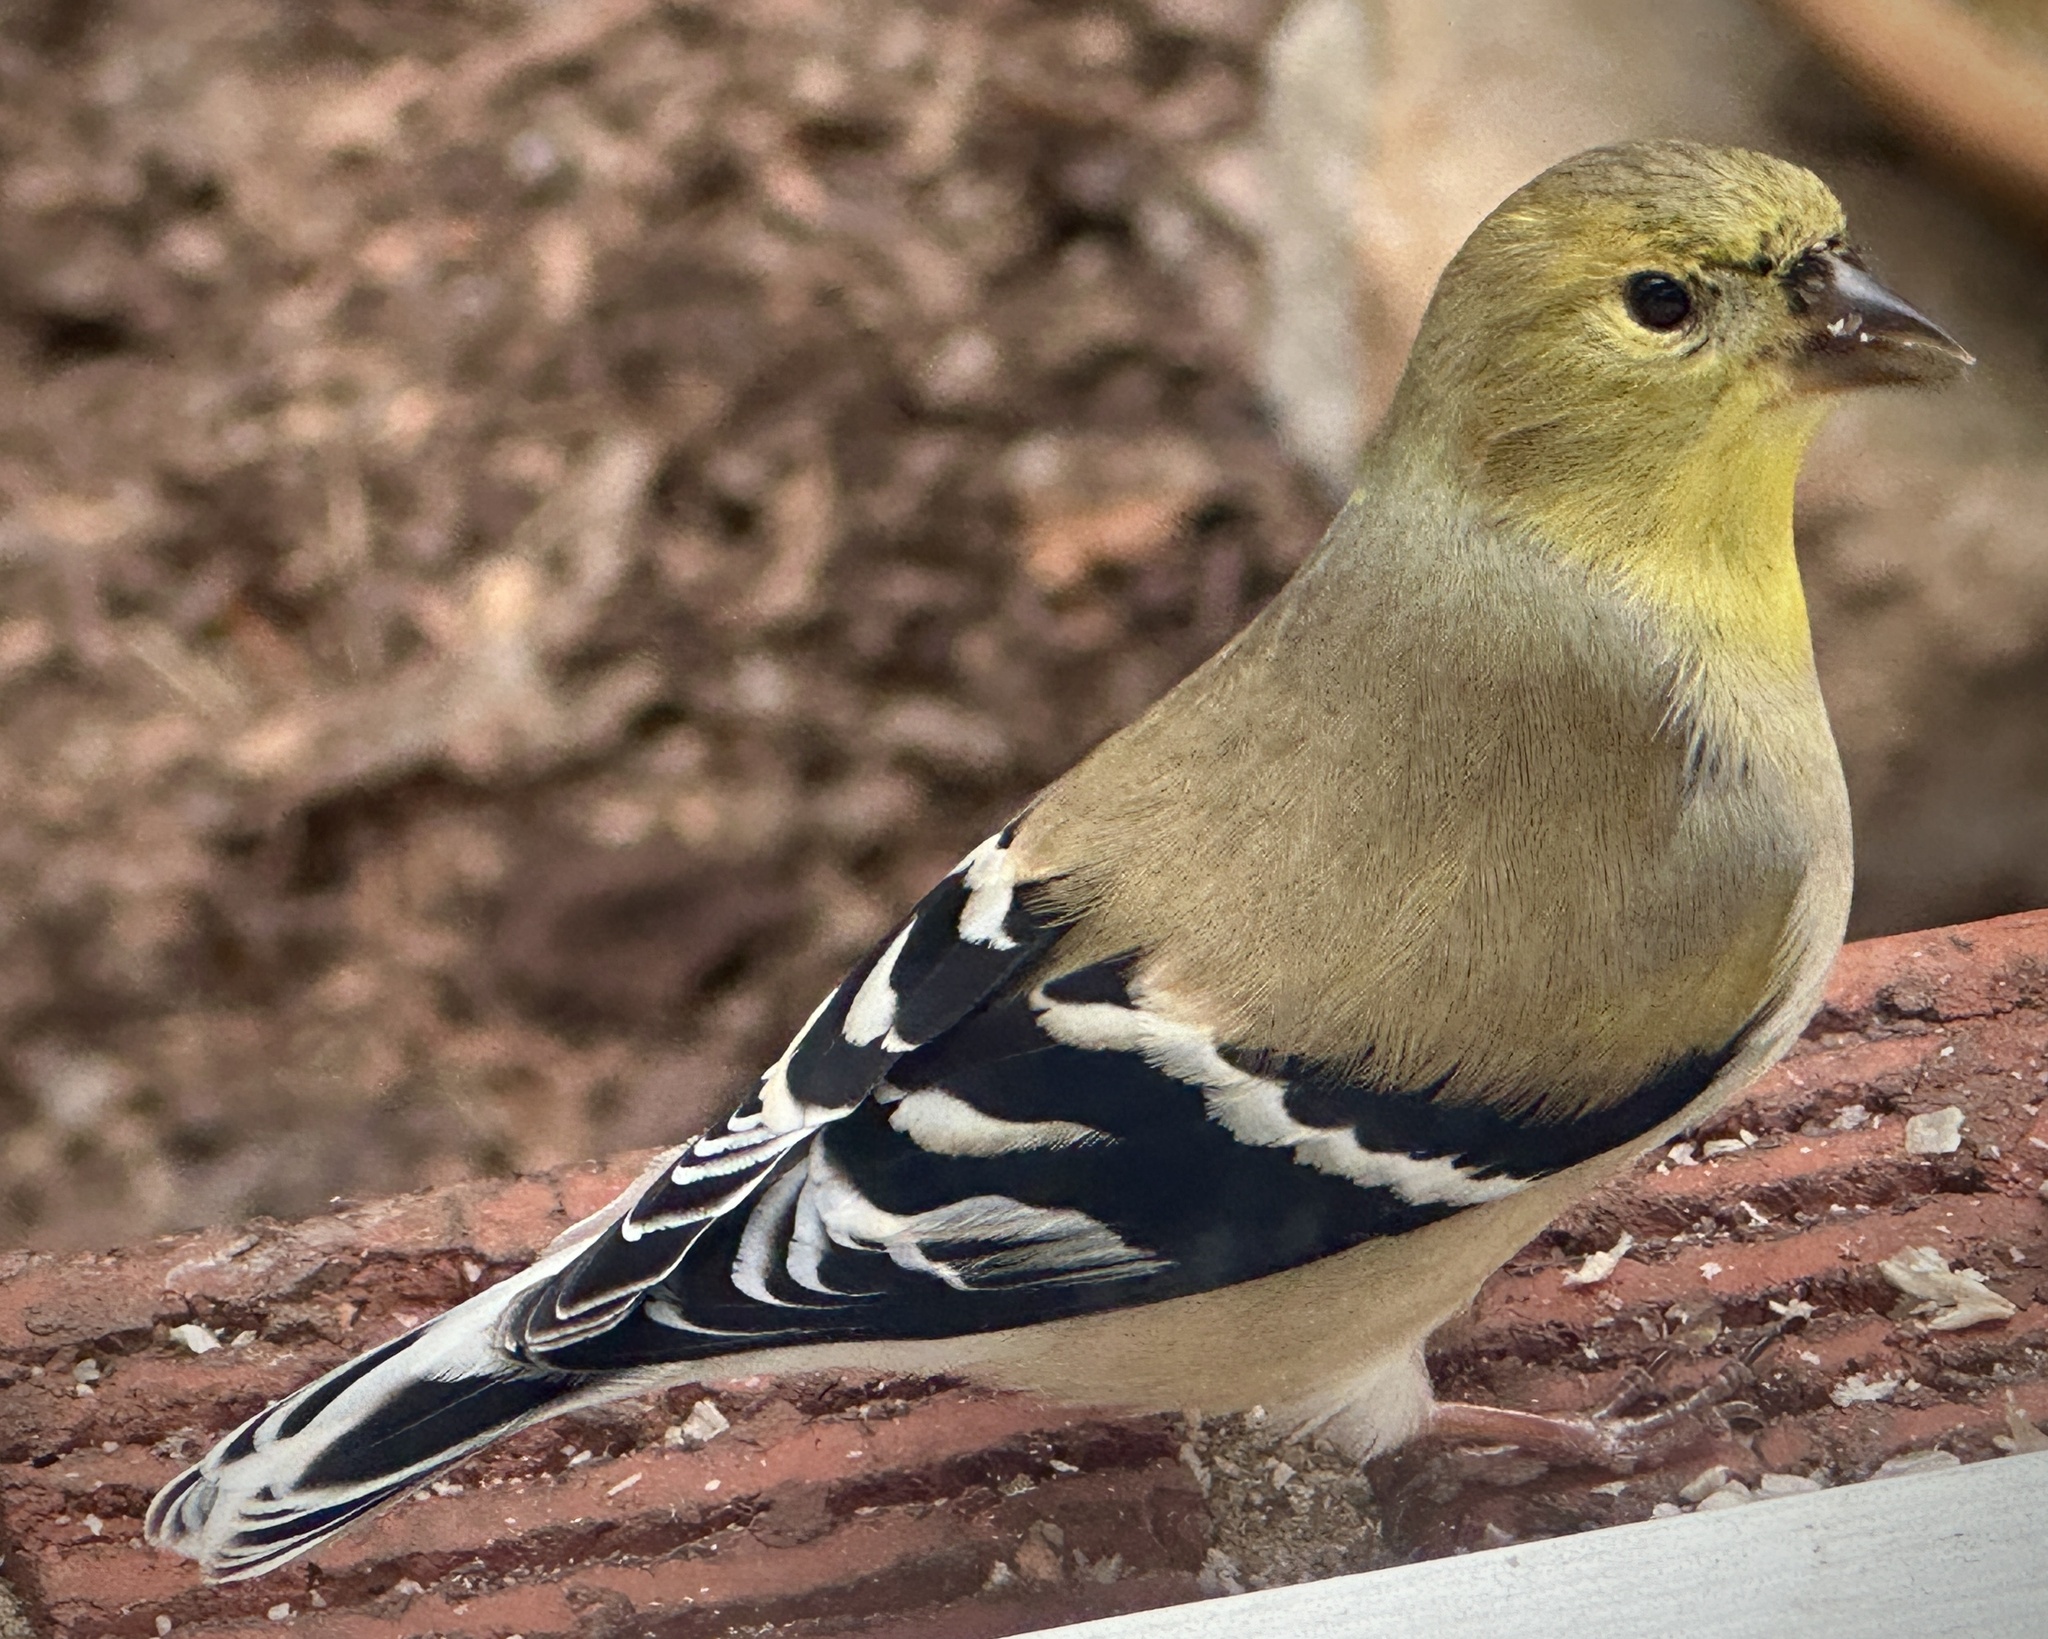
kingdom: Animalia
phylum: Chordata
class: Aves
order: Passeriformes
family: Fringillidae
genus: Spinus
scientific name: Spinus tristis
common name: American goldfinch
